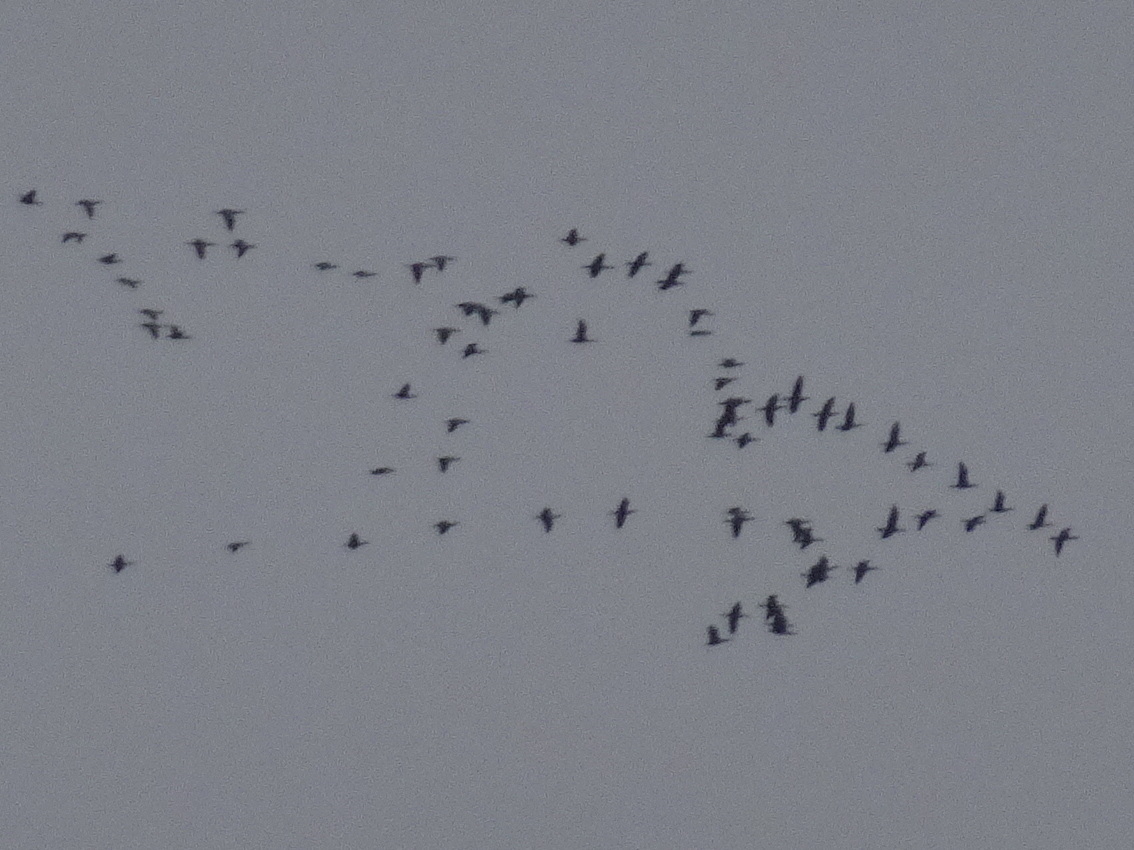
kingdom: Animalia
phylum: Chordata
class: Aves
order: Suliformes
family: Phalacrocoracidae
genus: Phalacrocorax
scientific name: Phalacrocorax auritus
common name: Double-crested cormorant
